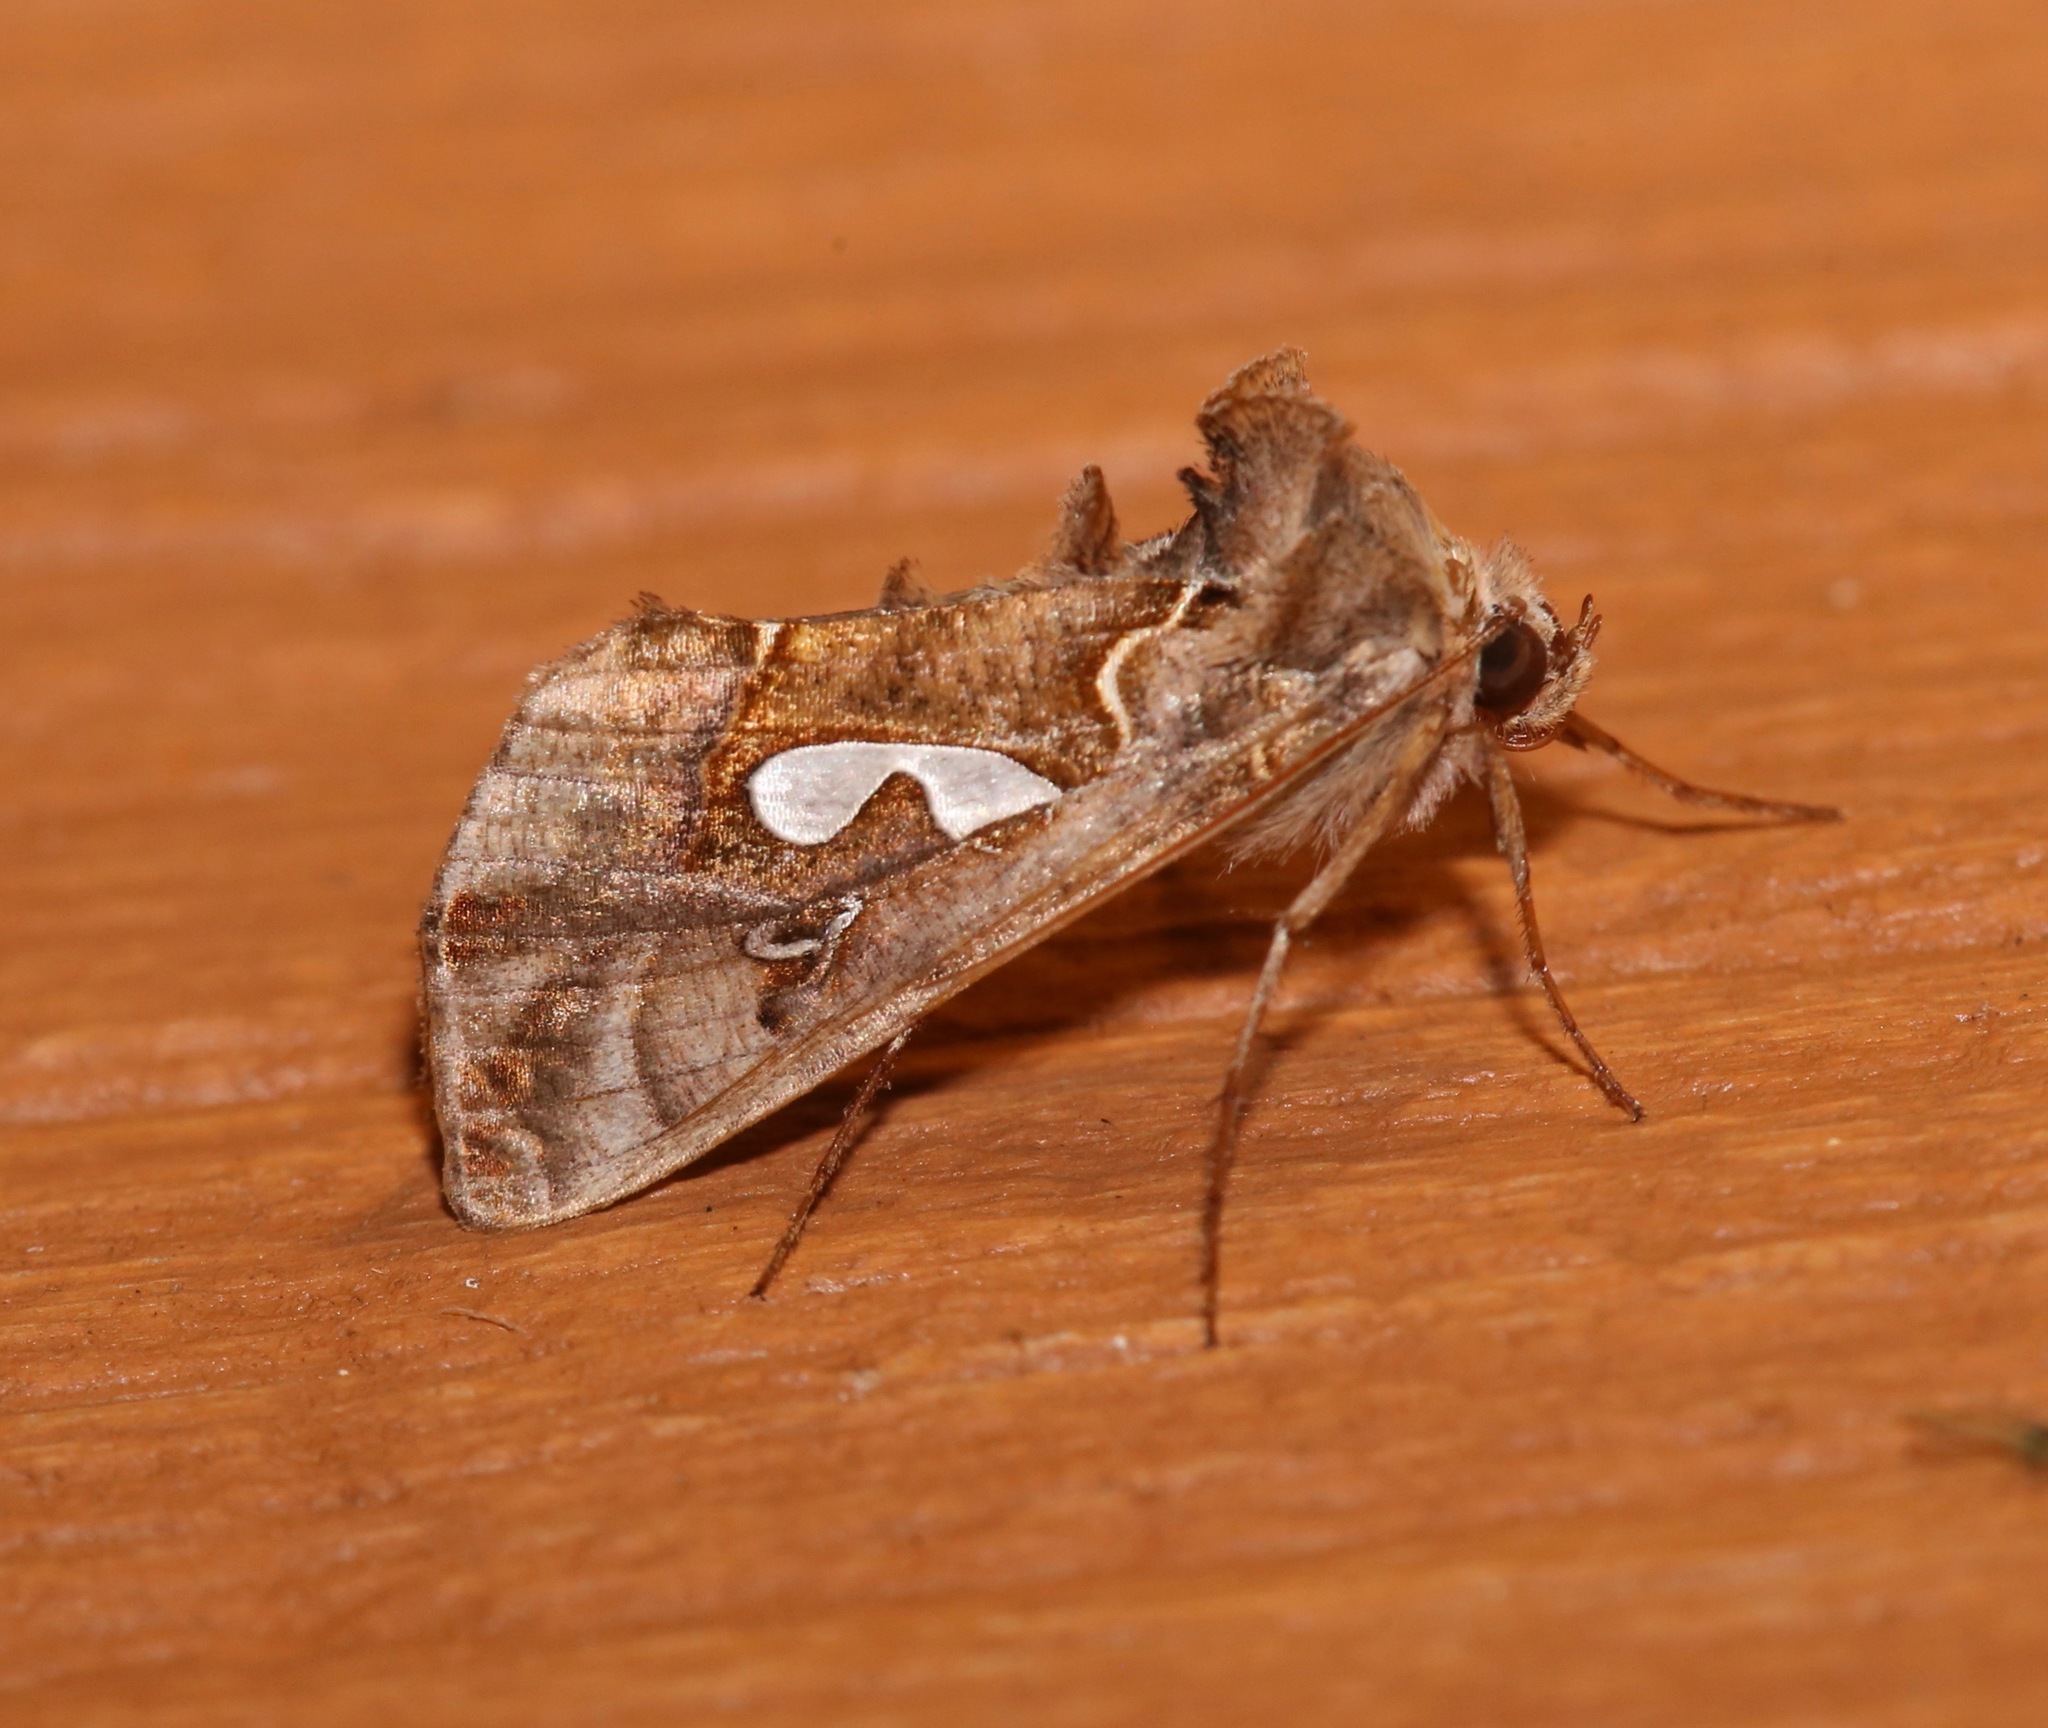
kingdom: Animalia
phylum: Arthropoda
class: Insecta
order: Lepidoptera
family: Noctuidae
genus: Megalographa
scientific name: Megalographa biloba
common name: Cutworm
